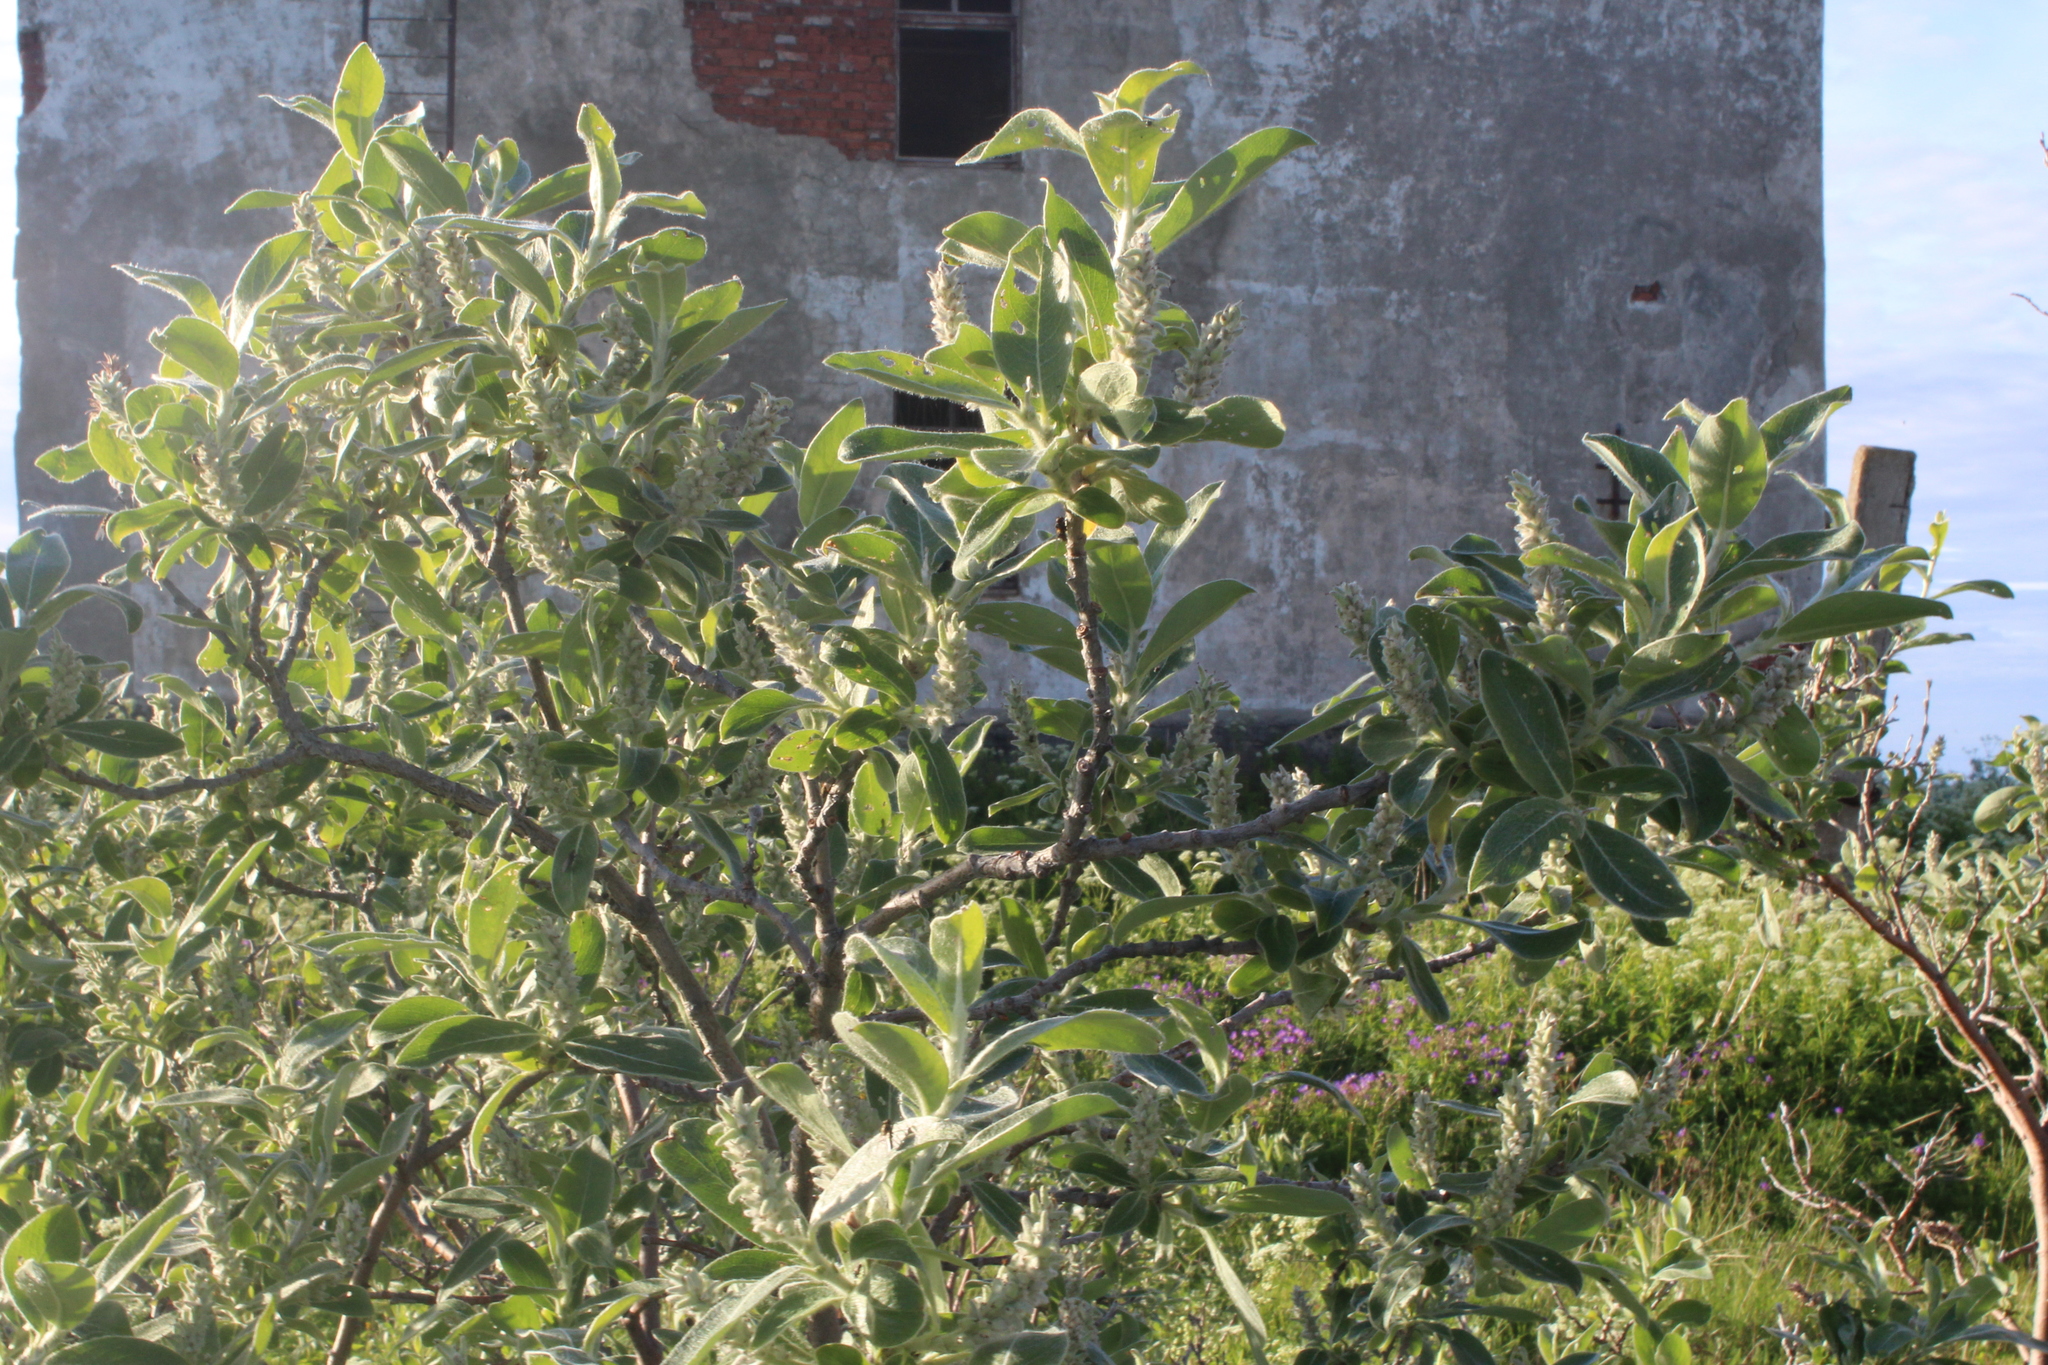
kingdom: Plantae
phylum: Tracheophyta
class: Magnoliopsida
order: Malpighiales
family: Salicaceae
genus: Salix
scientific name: Salix glauca
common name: Glaucous willow
